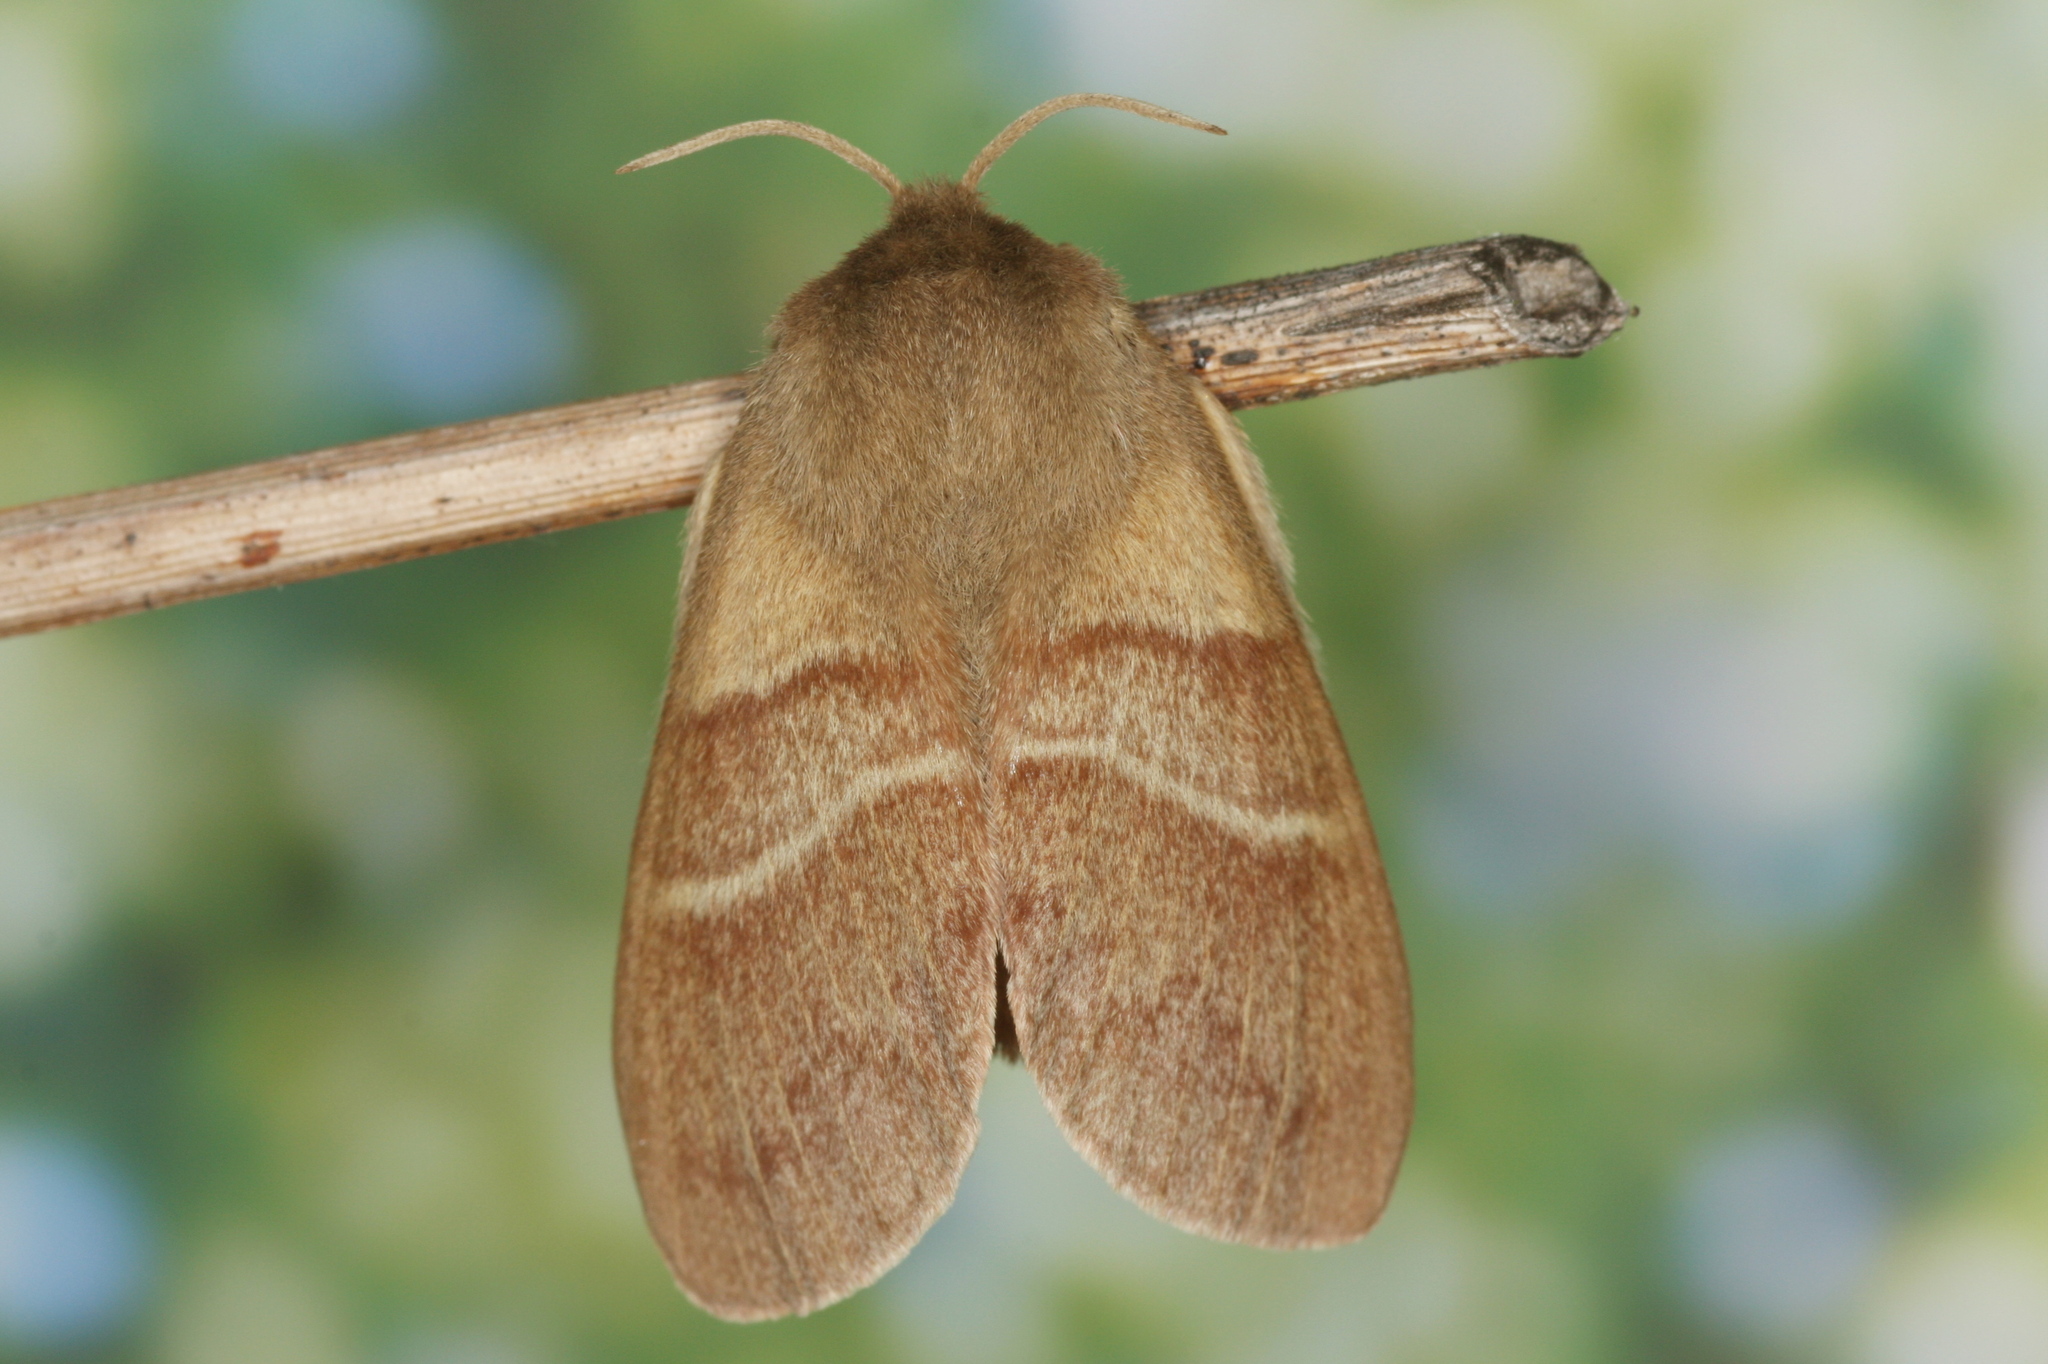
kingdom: Animalia
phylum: Arthropoda
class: Insecta
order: Lepidoptera
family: Lasiocampidae
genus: Macrothylacia
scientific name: Macrothylacia rubi
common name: Fox moth
